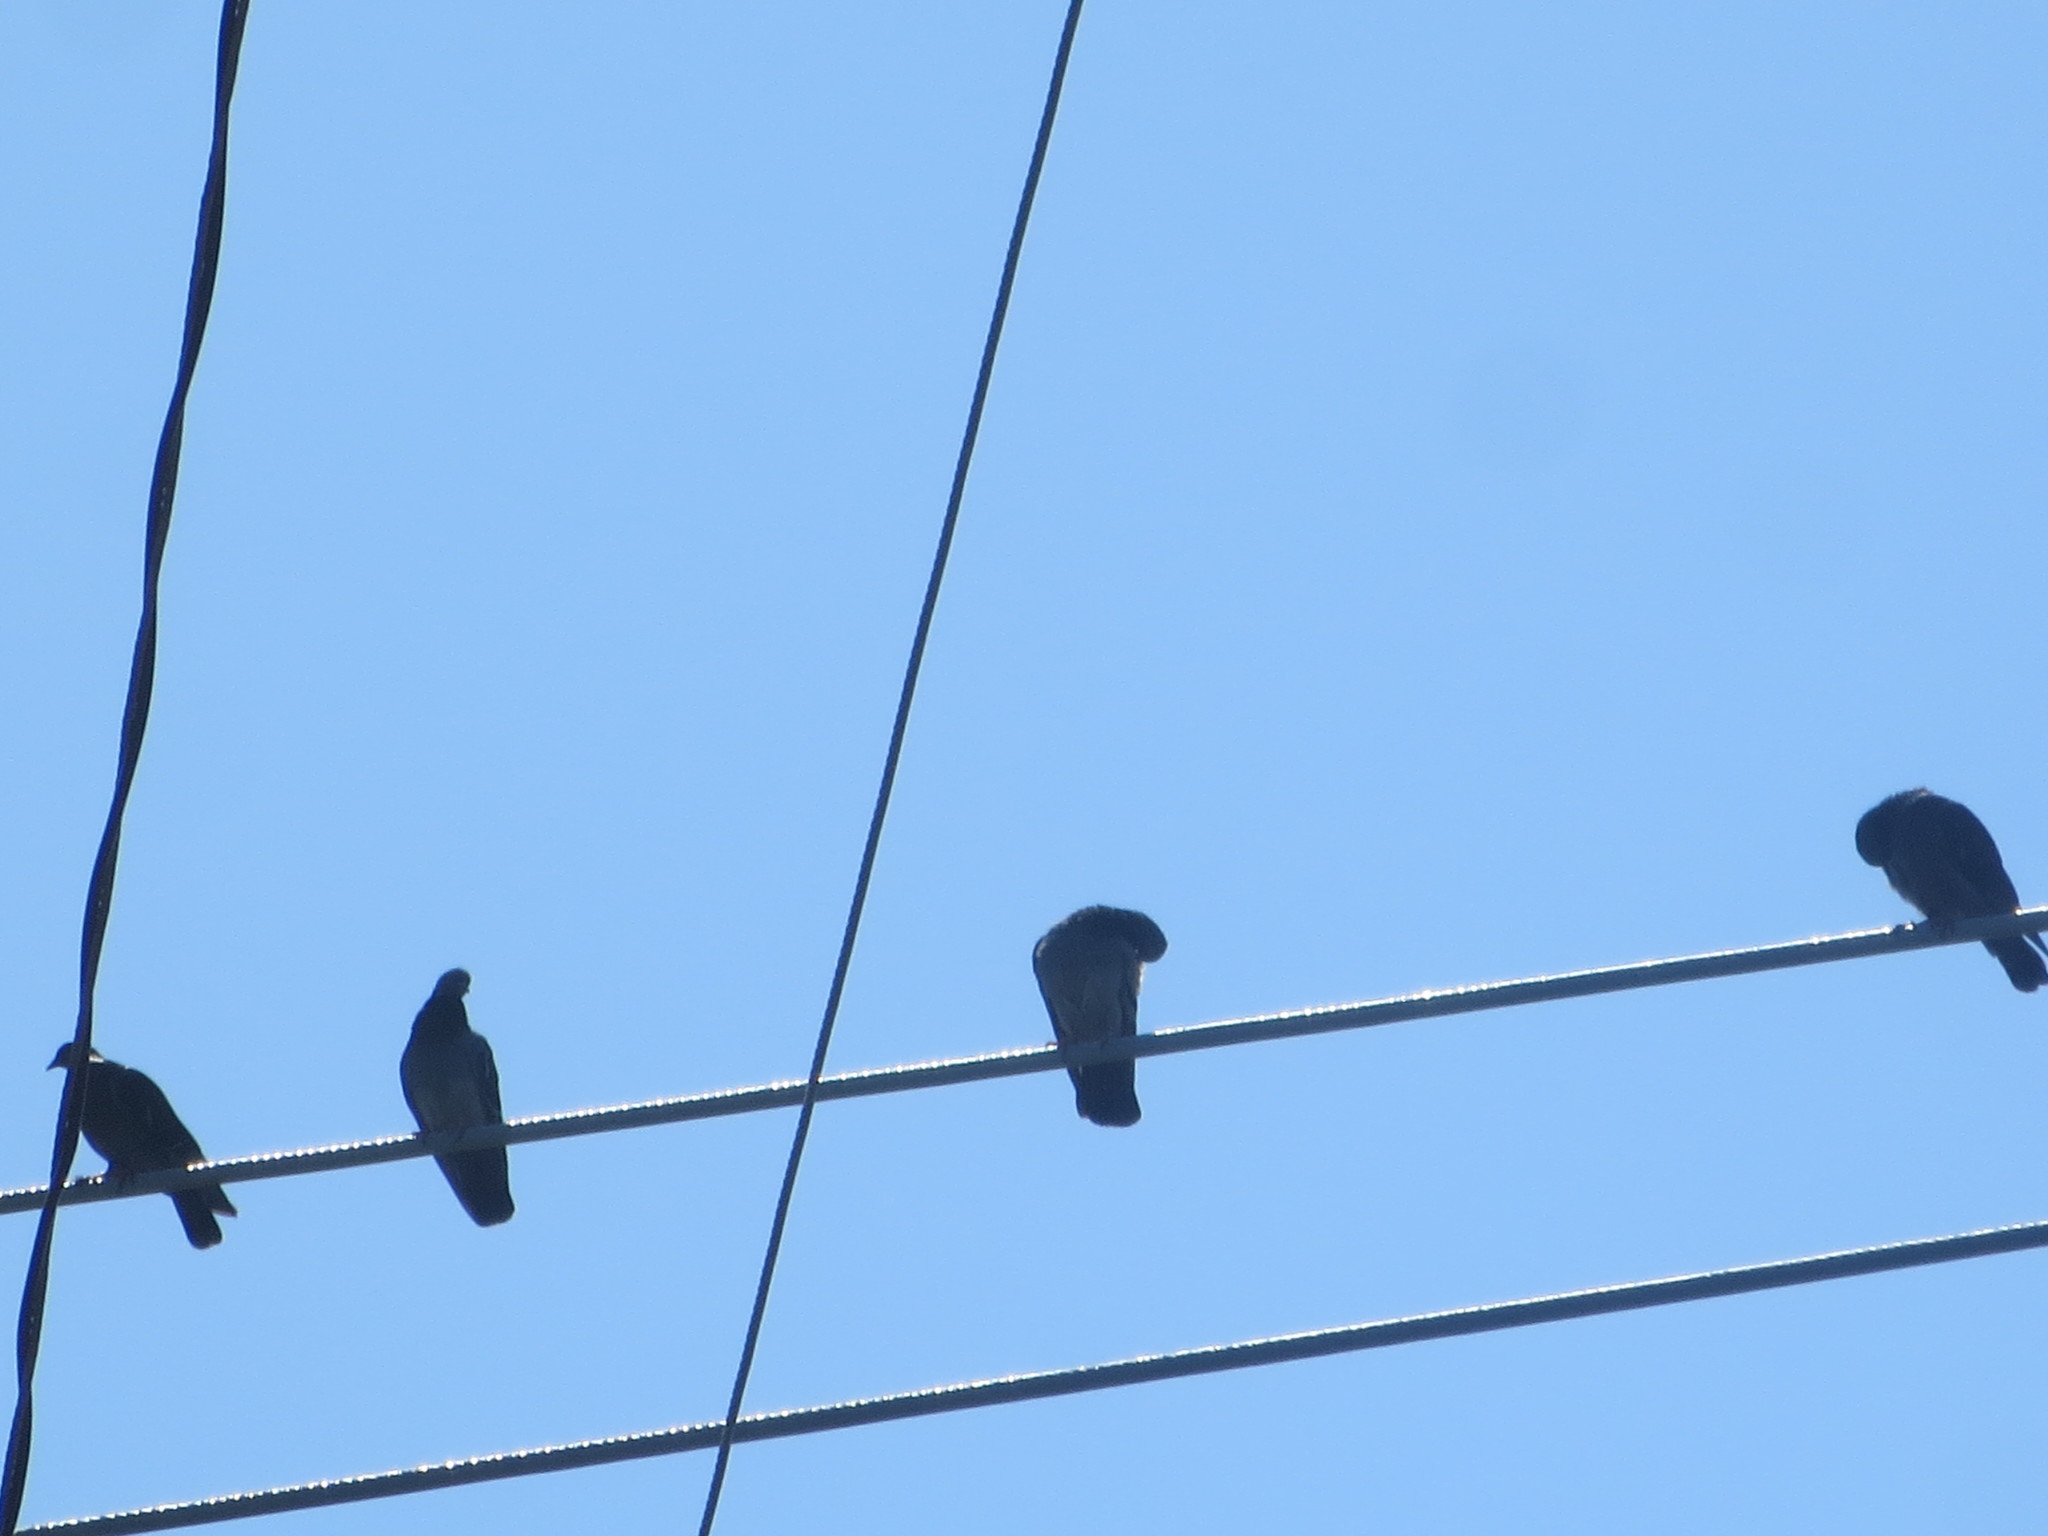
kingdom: Animalia
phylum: Chordata
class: Aves
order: Columbiformes
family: Columbidae
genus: Columba
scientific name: Columba livia
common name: Rock pigeon
